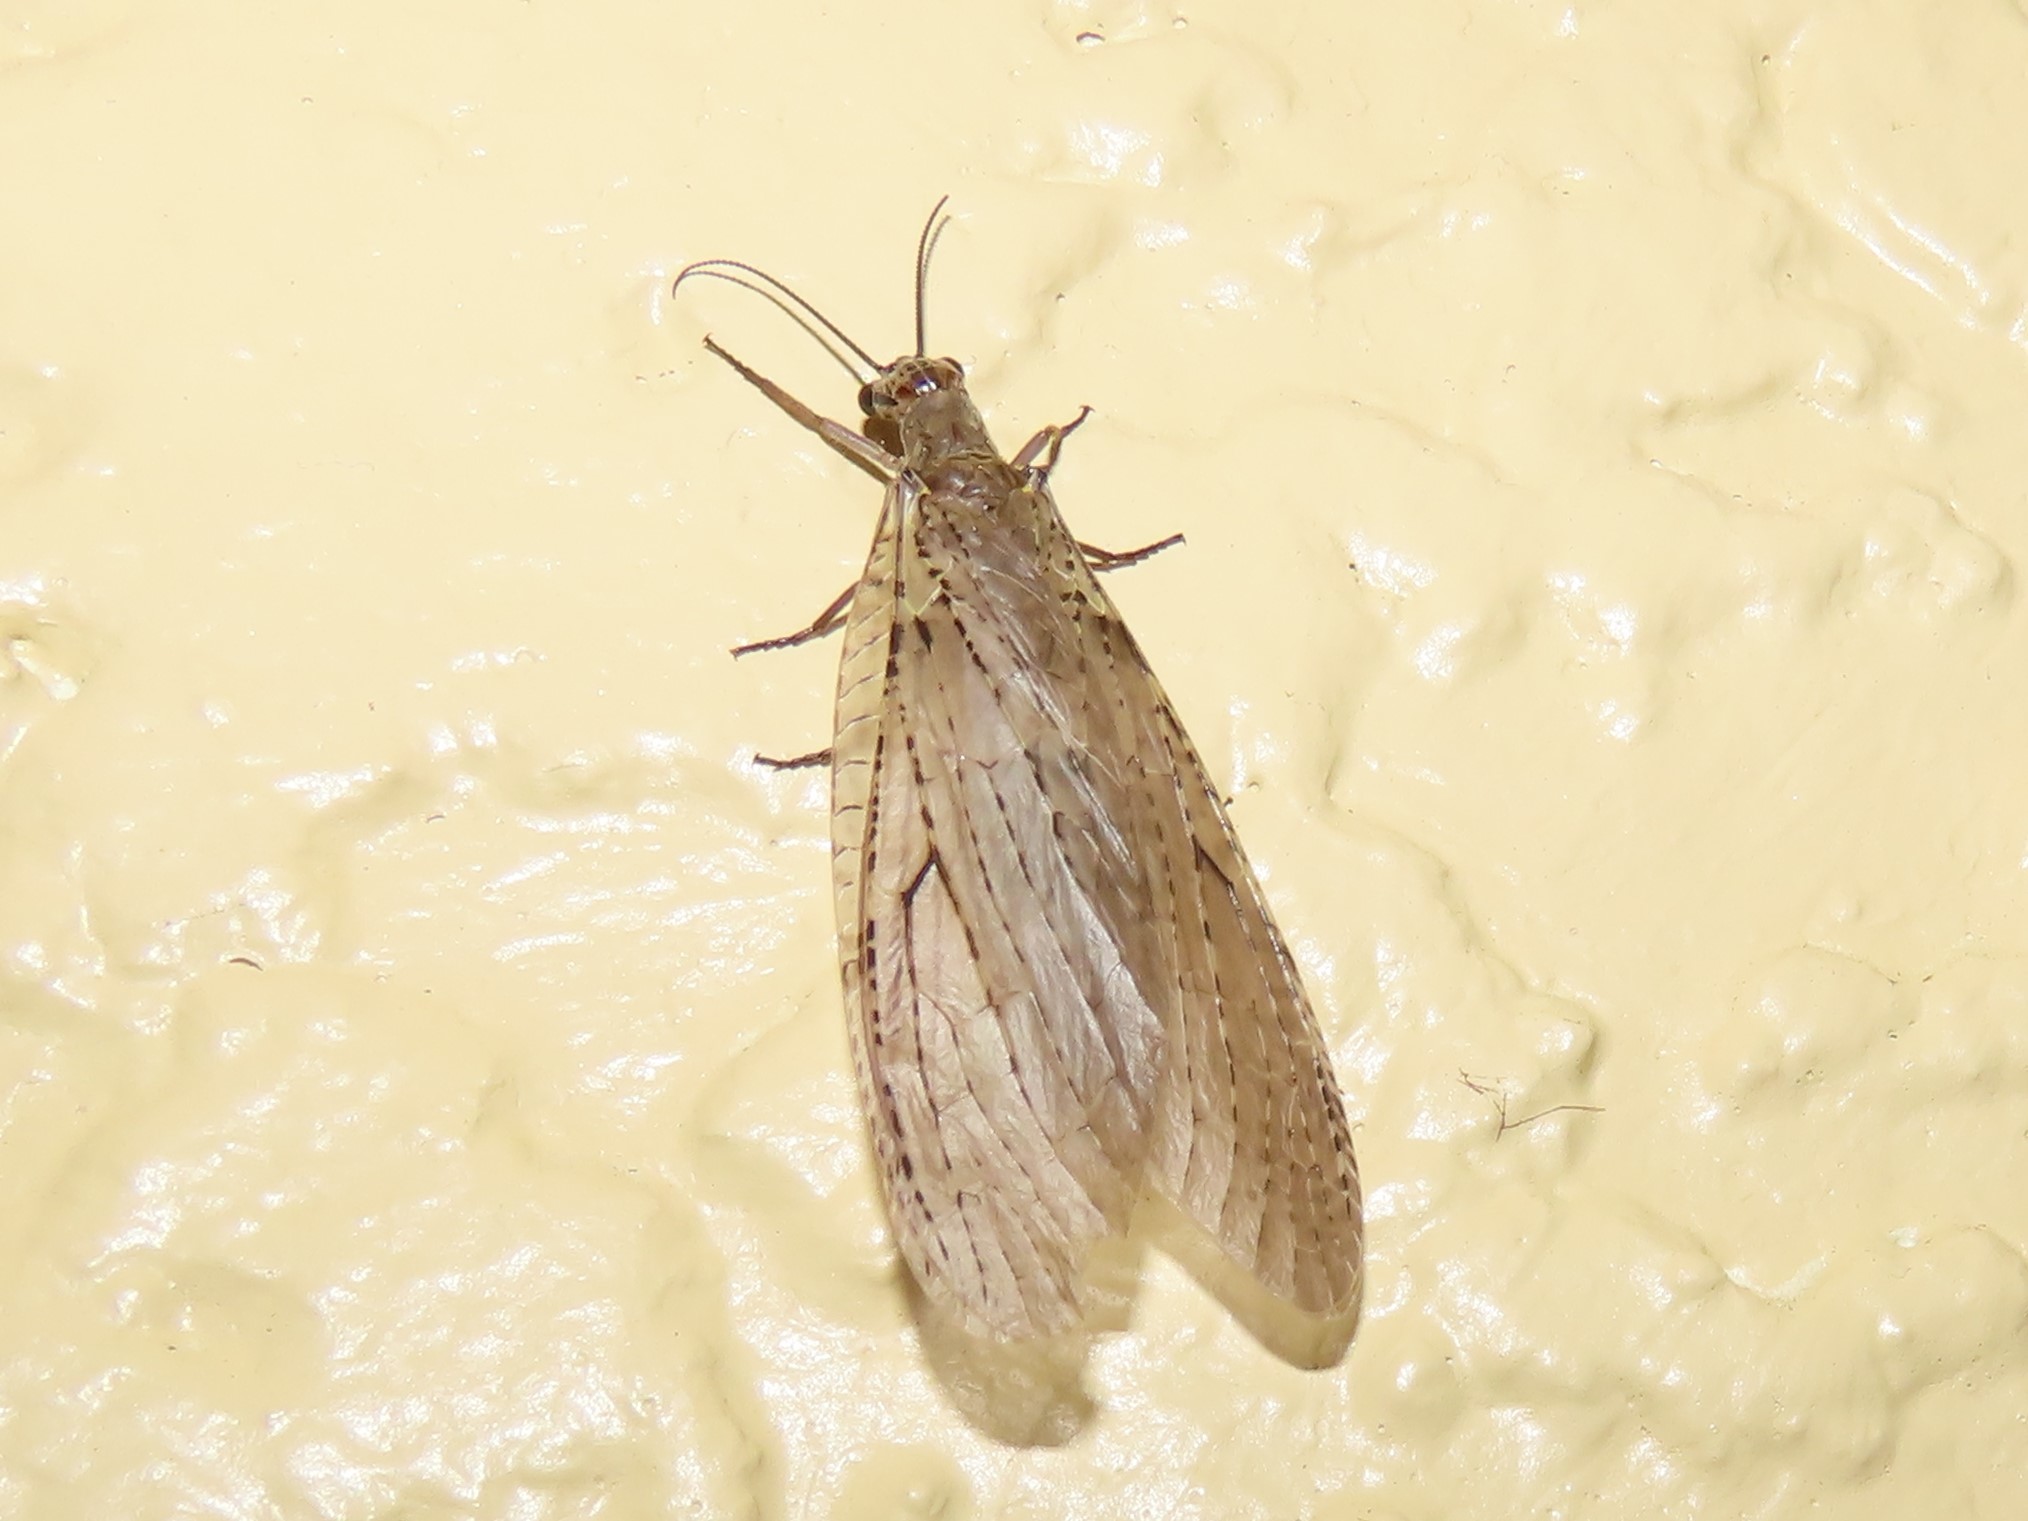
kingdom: Animalia
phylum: Arthropoda
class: Insecta
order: Megaloptera
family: Corydalidae
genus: Chauliodes
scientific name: Chauliodes rastricornis
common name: Spring fishfly
